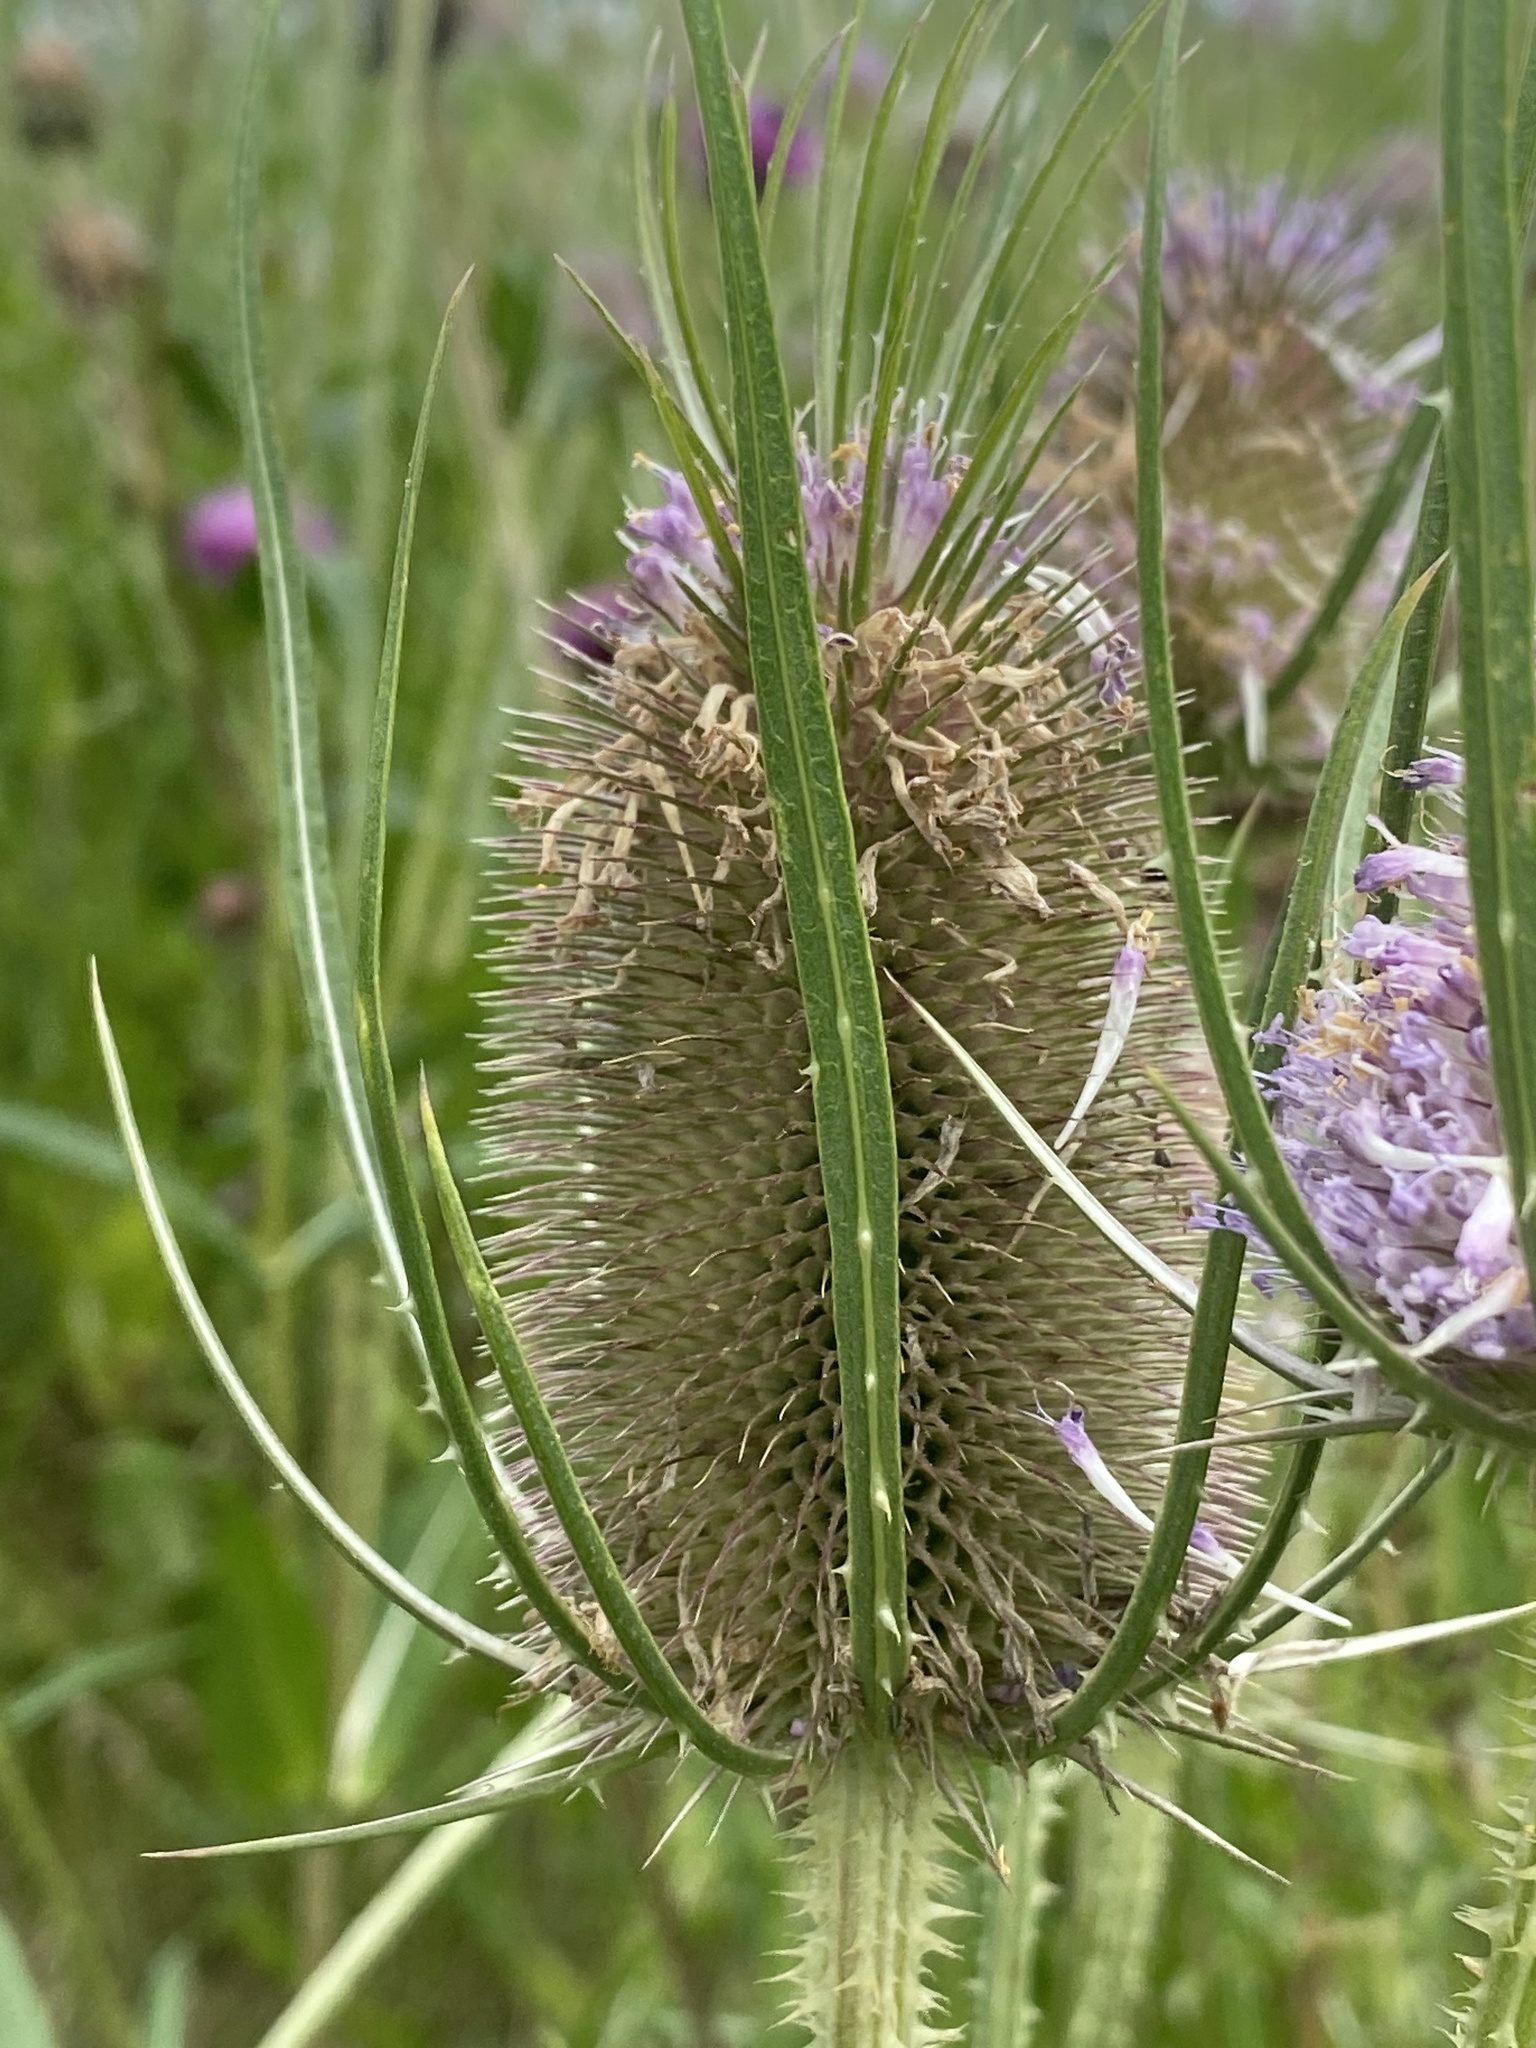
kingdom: Plantae
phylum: Tracheophyta
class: Magnoliopsida
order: Dipsacales
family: Caprifoliaceae
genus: Dipsacus
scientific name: Dipsacus fullonum
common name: Teasel
